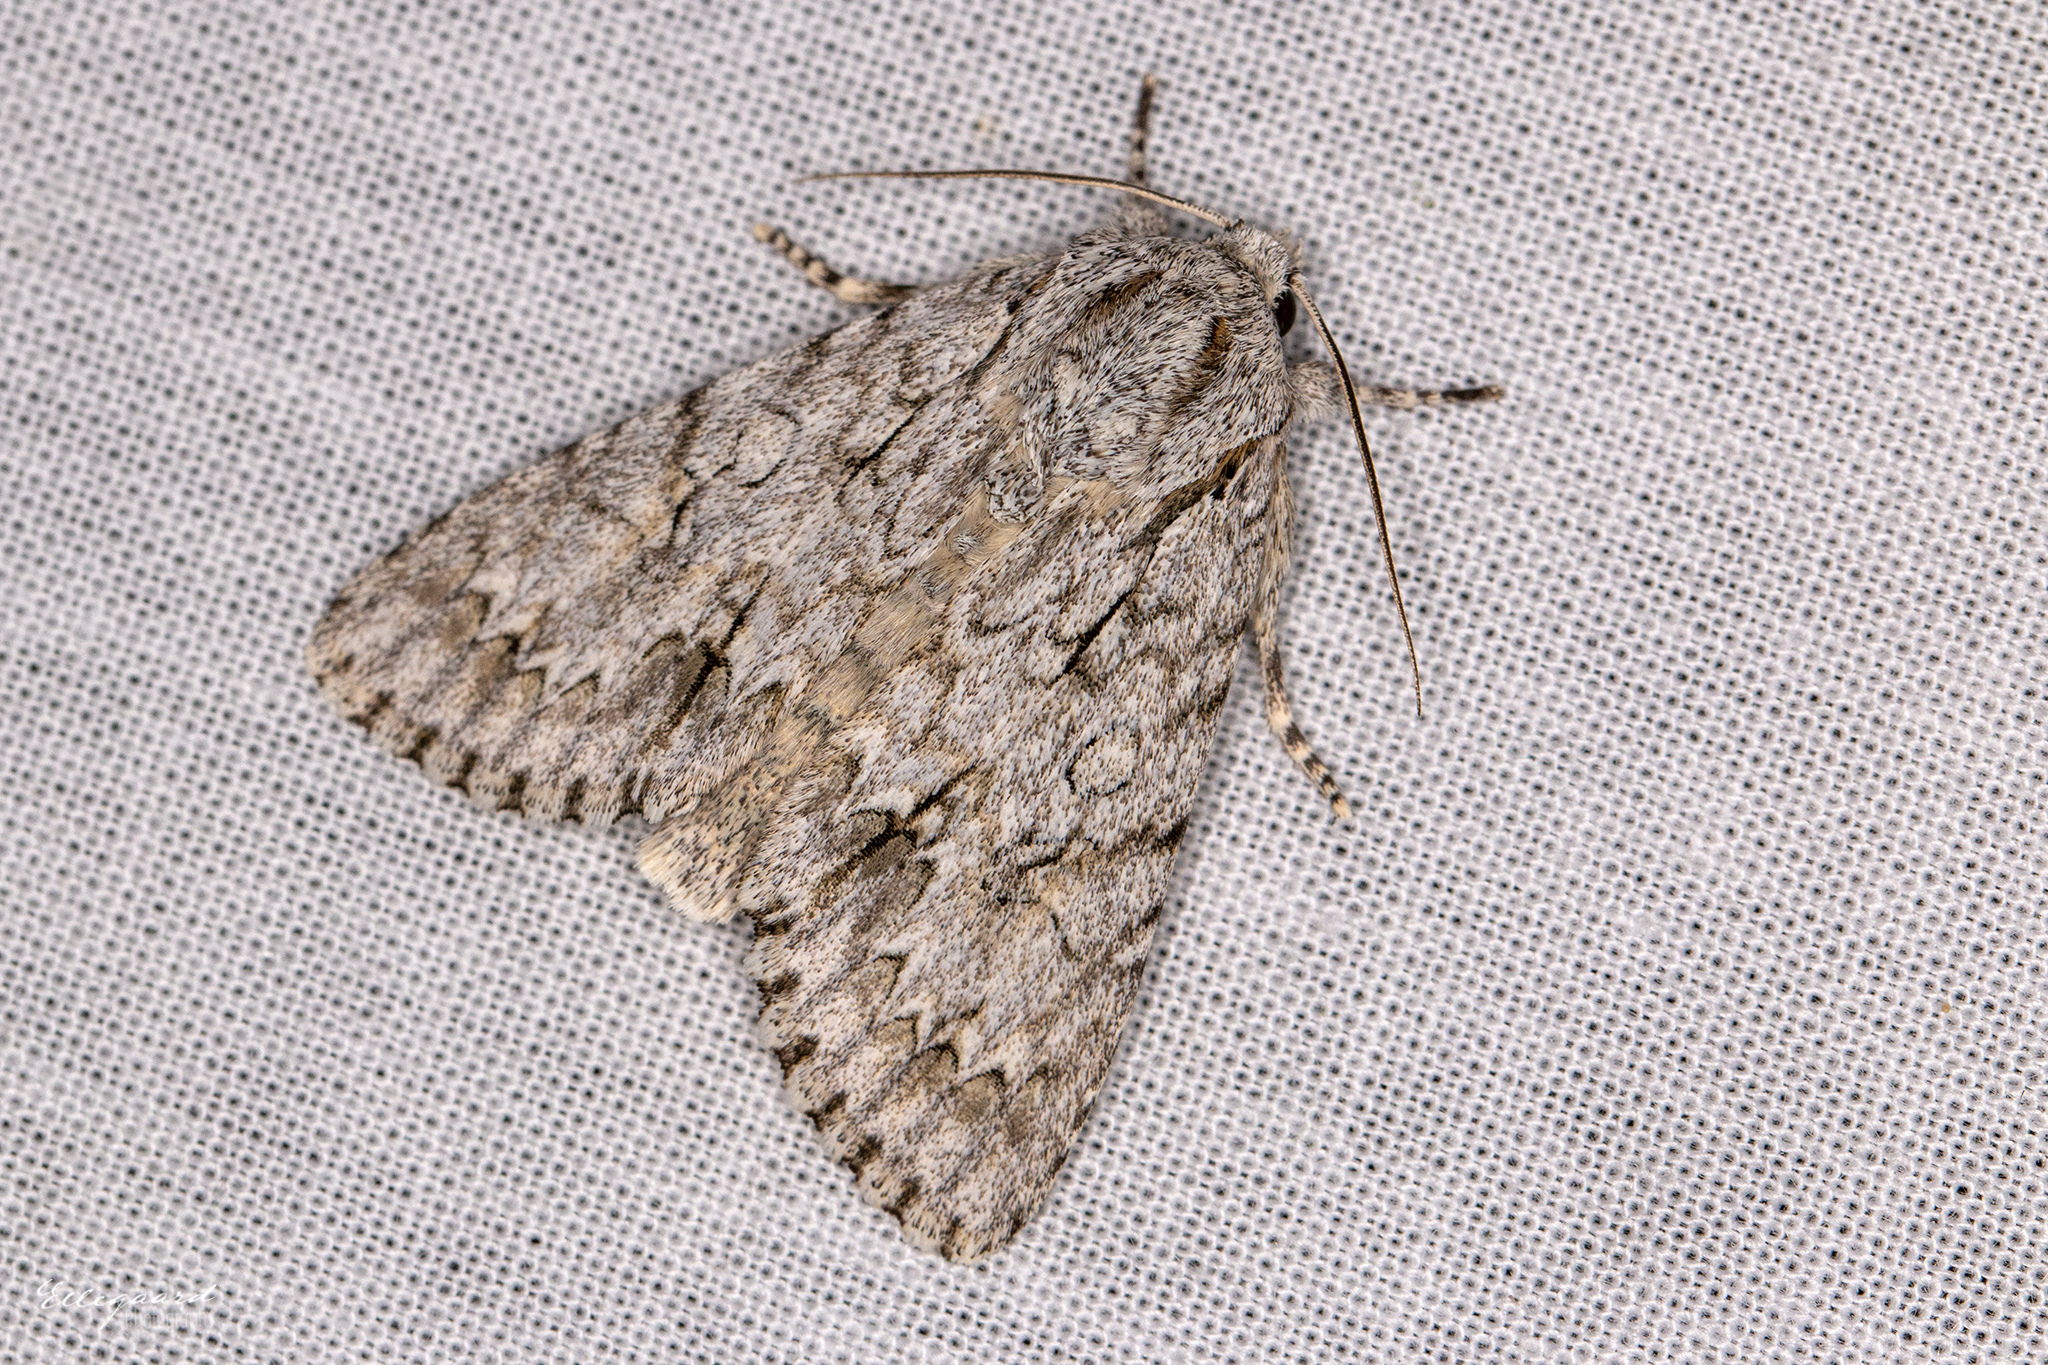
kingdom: Animalia
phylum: Arthropoda
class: Insecta
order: Lepidoptera
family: Noctuidae
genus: Acronicta
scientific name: Acronicta aceris
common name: Sycamore
